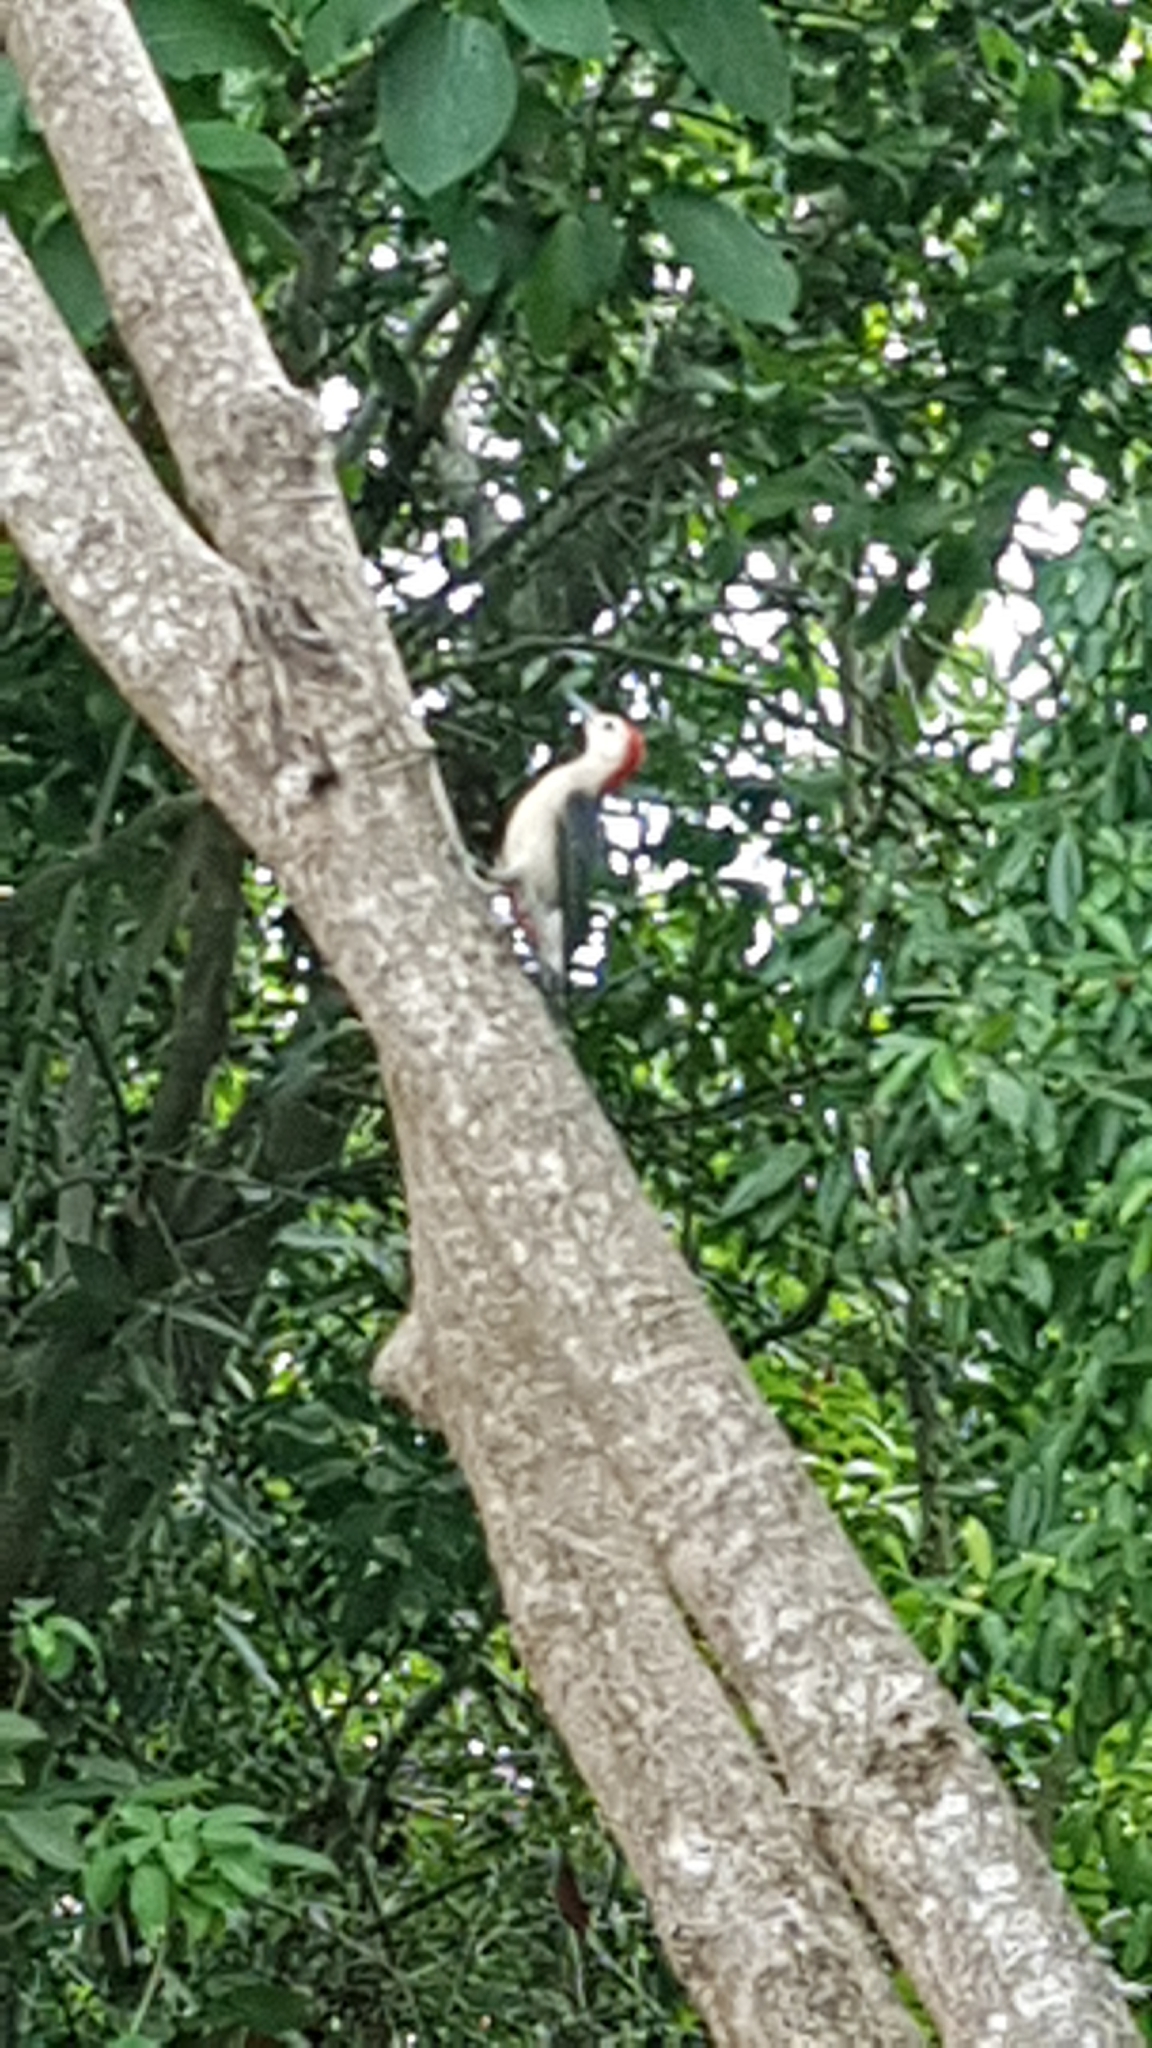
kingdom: Animalia
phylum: Chordata
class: Aves
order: Piciformes
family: Picidae
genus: Melanerpes
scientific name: Melanerpes pygmaeus
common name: Yucatan woodpecker
